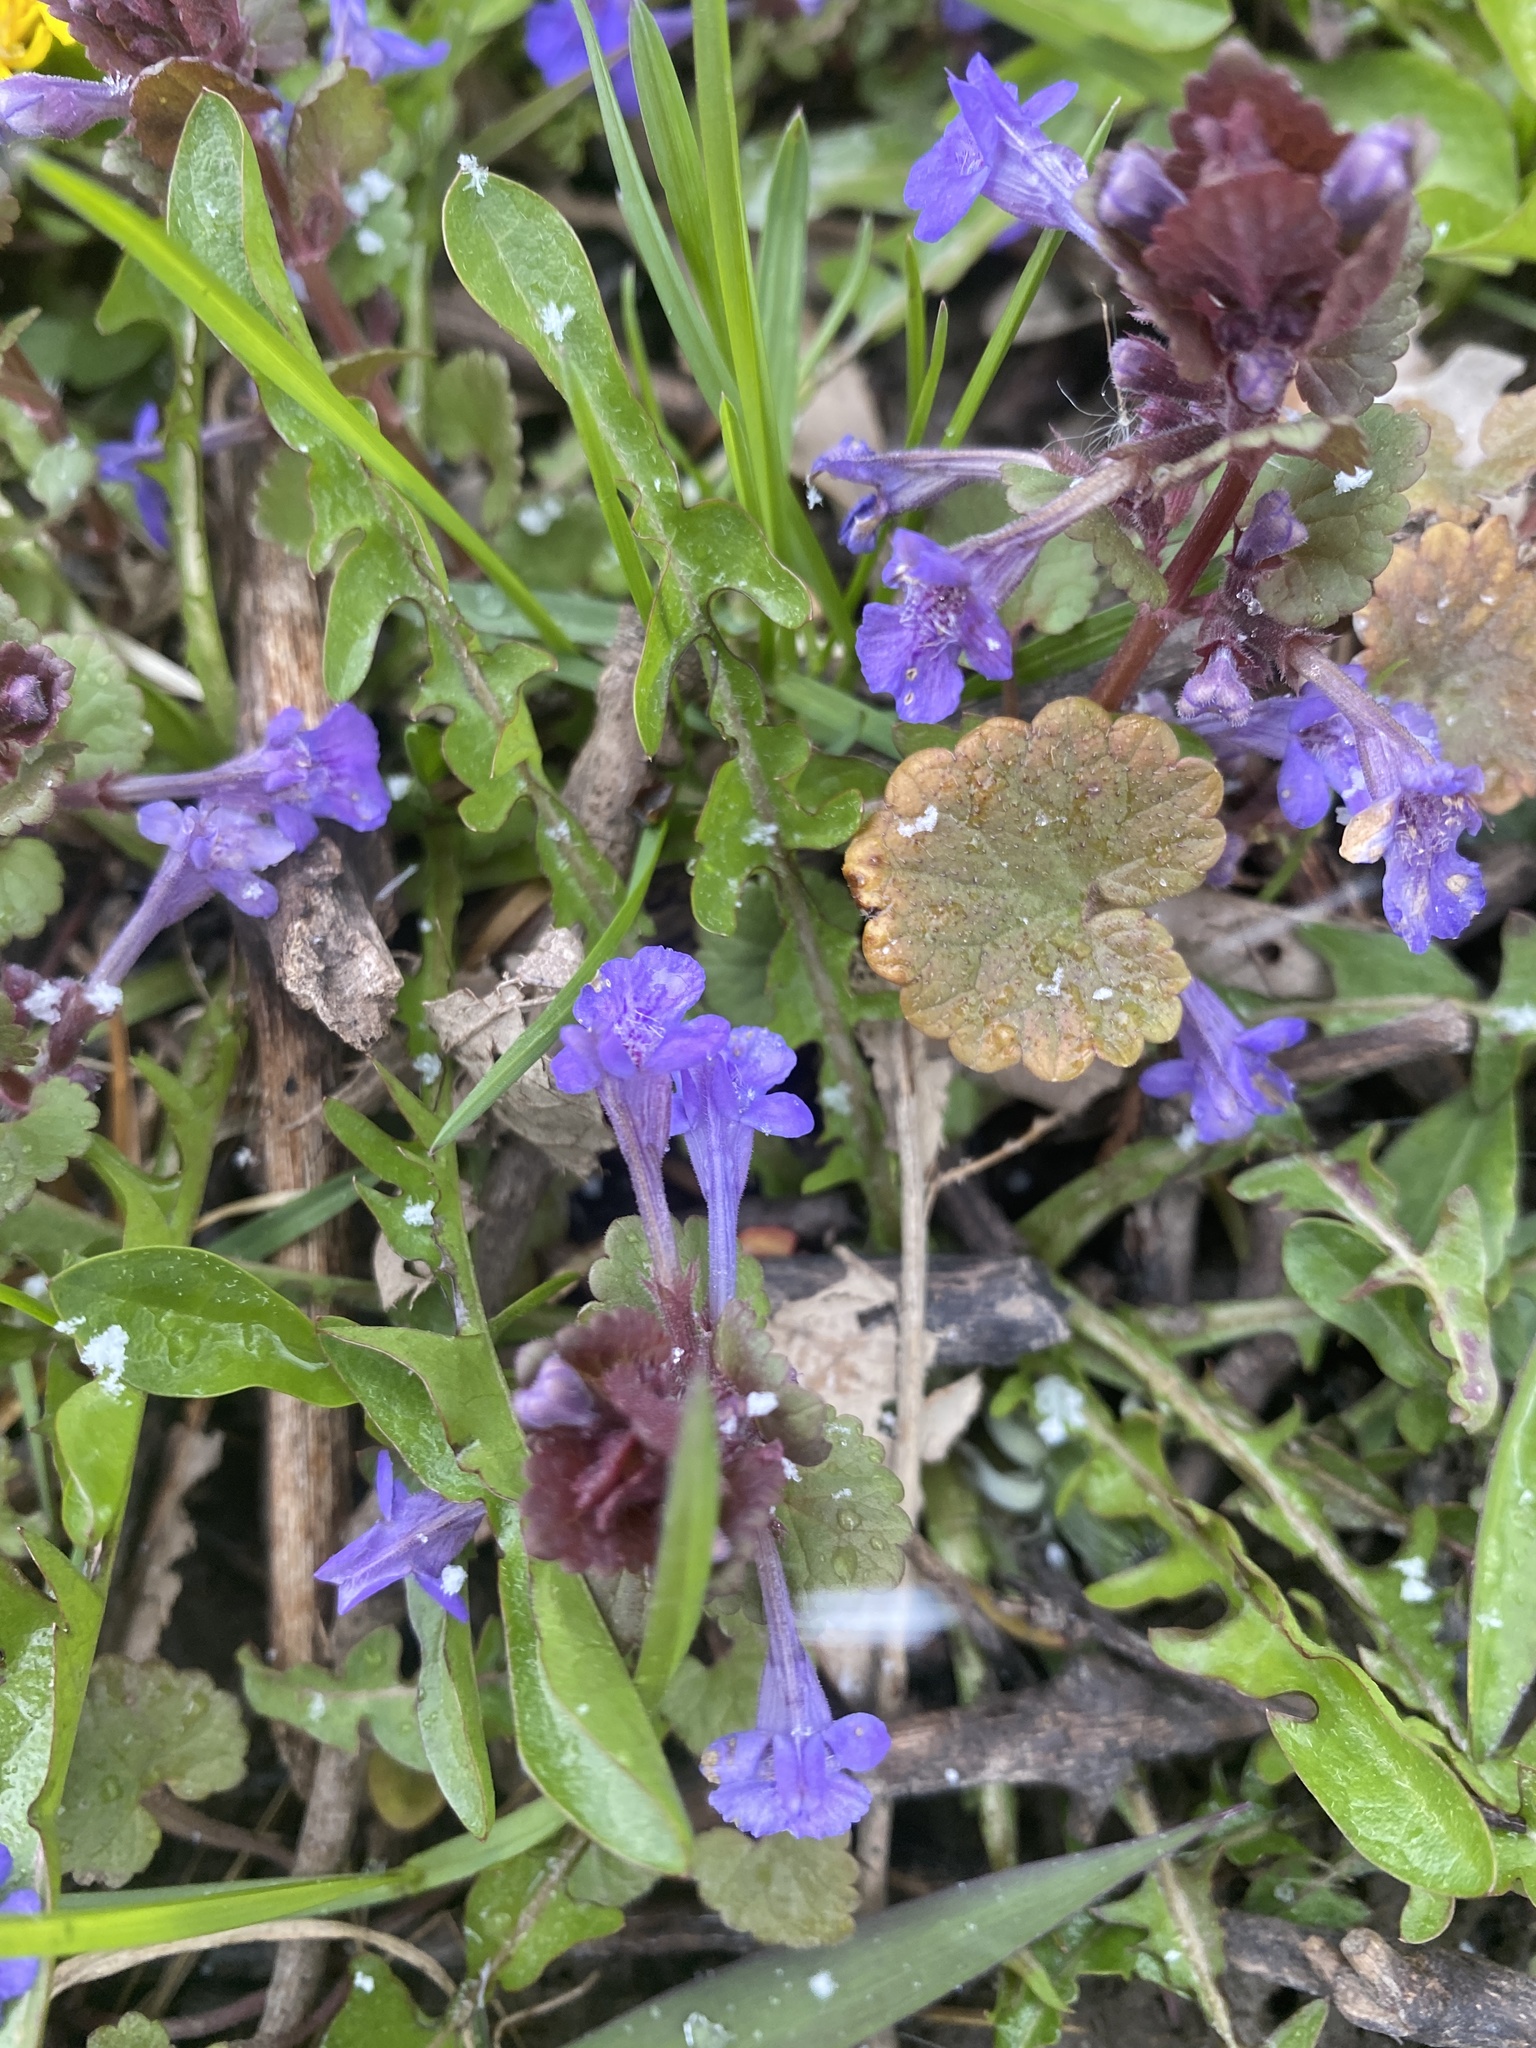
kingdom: Plantae
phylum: Tracheophyta
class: Magnoliopsida
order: Lamiales
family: Lamiaceae
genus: Glechoma
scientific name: Glechoma hederacea
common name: Ground ivy
